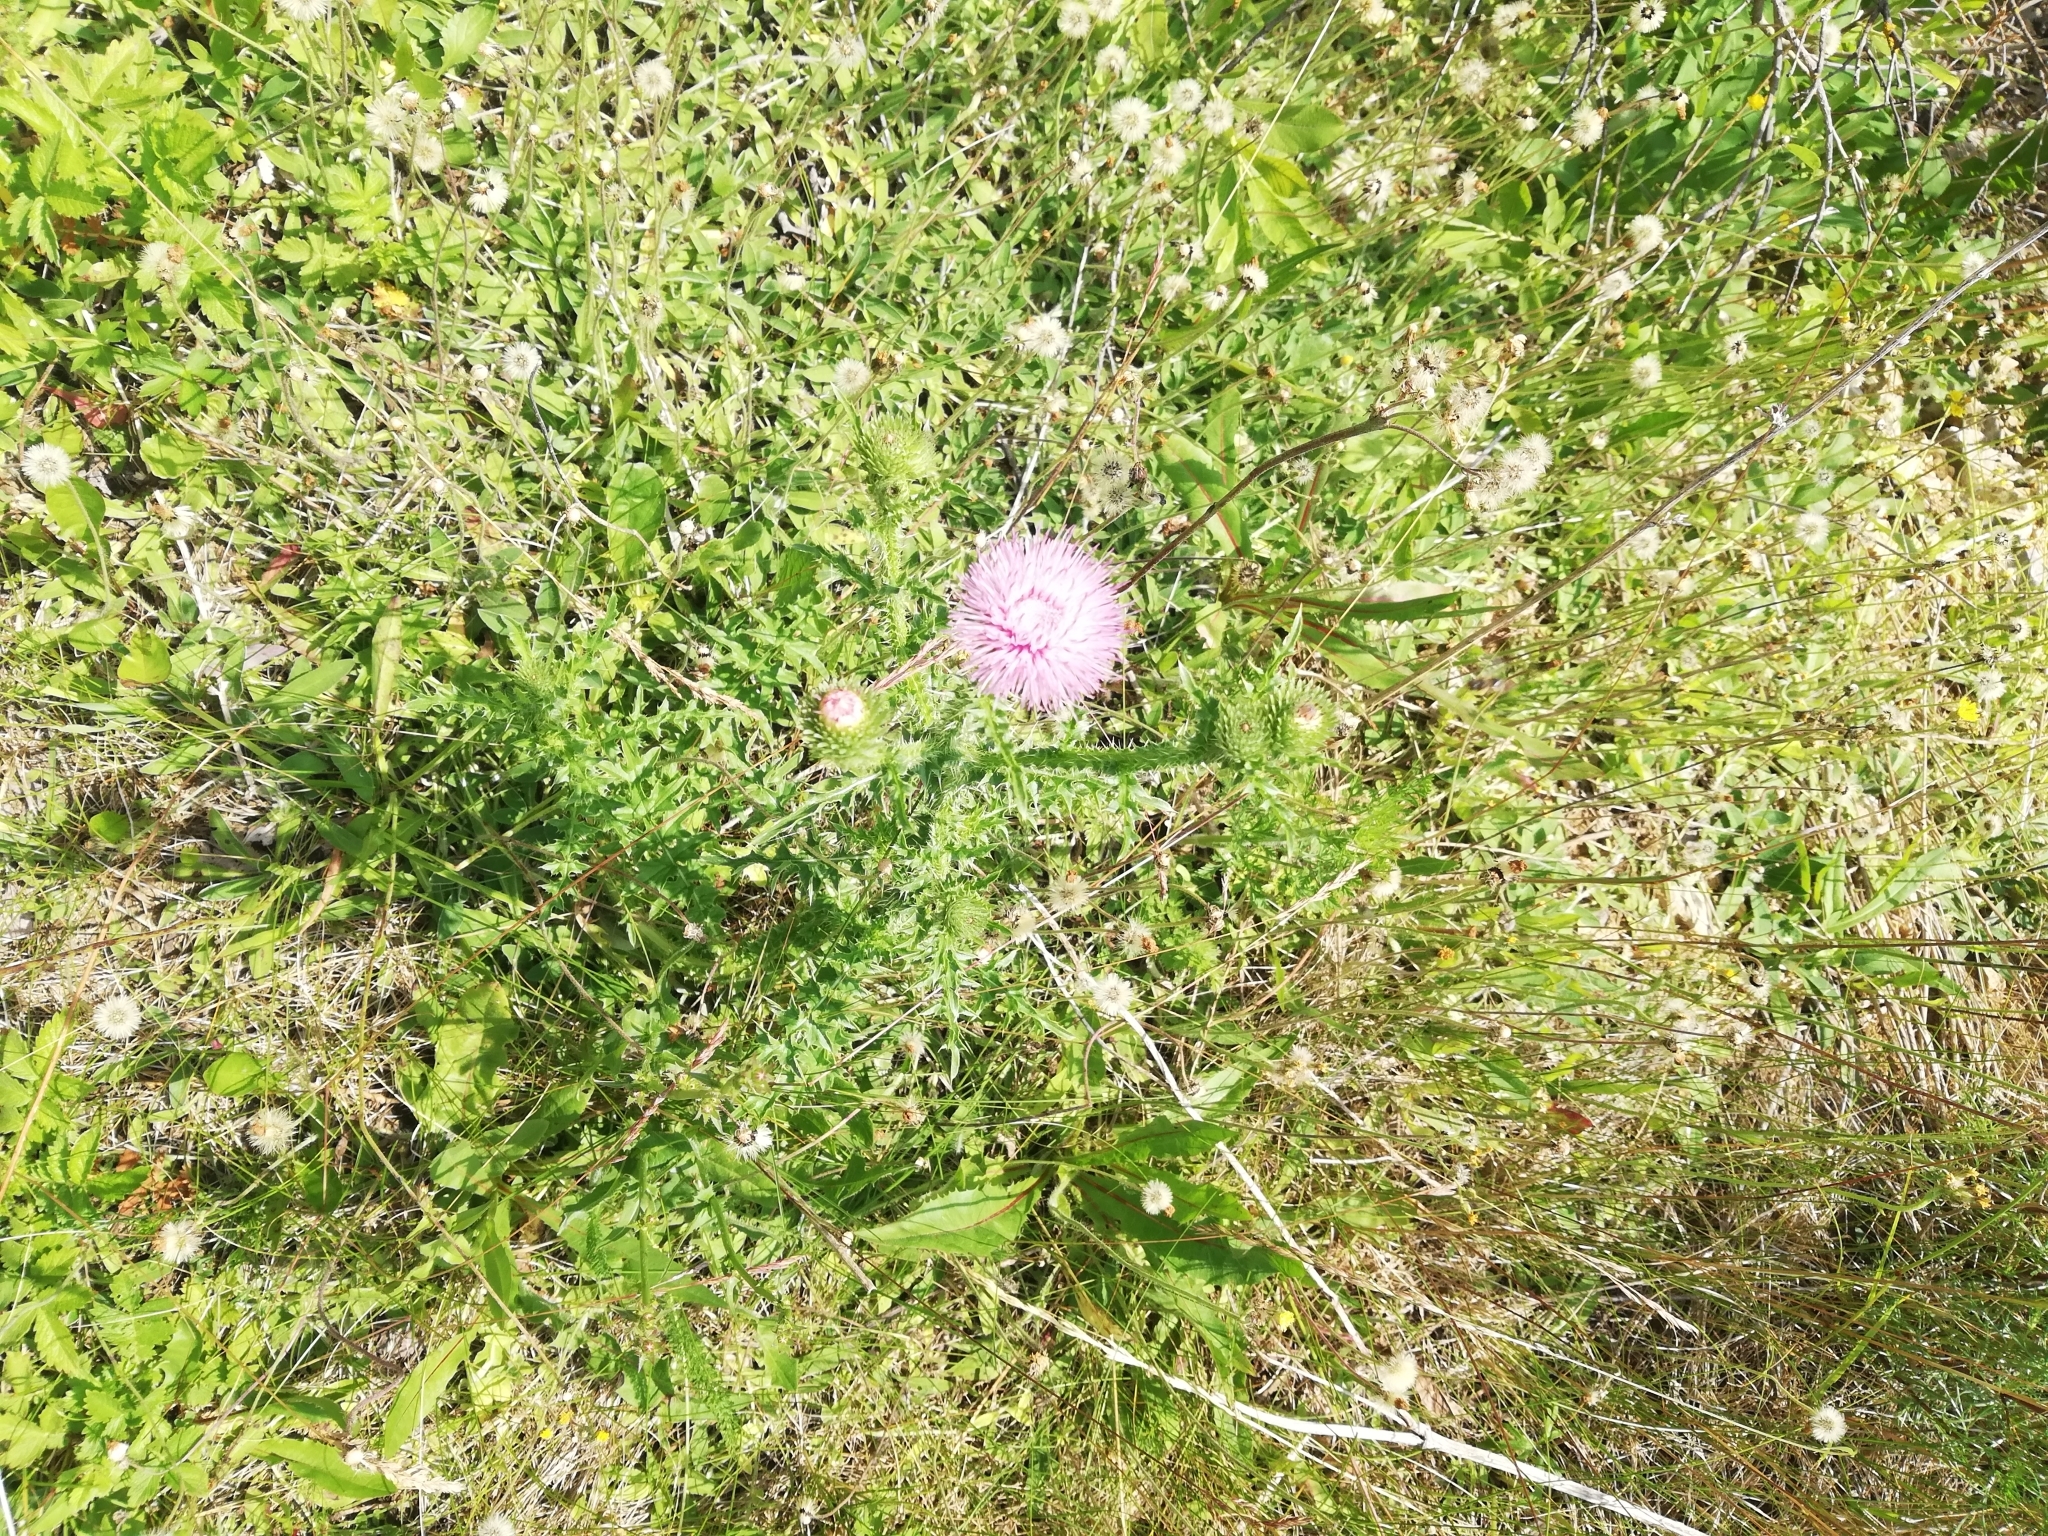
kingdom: Plantae
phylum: Tracheophyta
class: Magnoliopsida
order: Asterales
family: Asteraceae
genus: Carduus
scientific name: Carduus acanthoides
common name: Plumeless thistle
